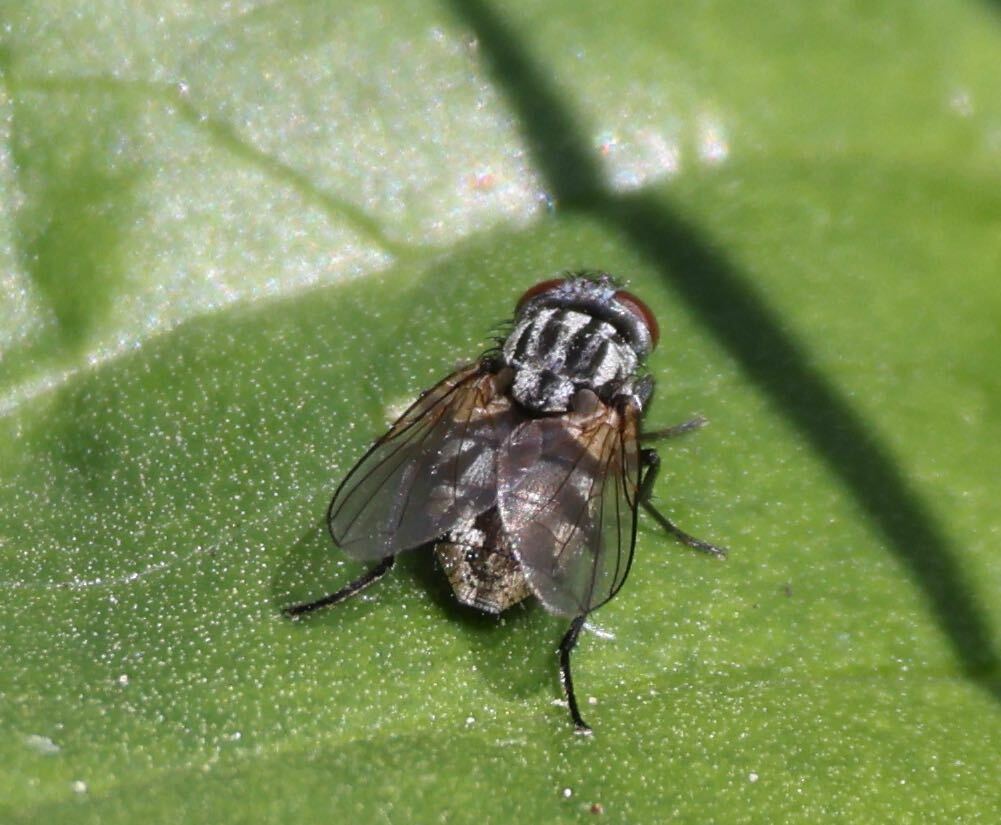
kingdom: Animalia
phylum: Arthropoda
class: Insecta
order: Diptera
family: Muscidae
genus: Musca
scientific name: Musca autumnalis
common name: Face fly
